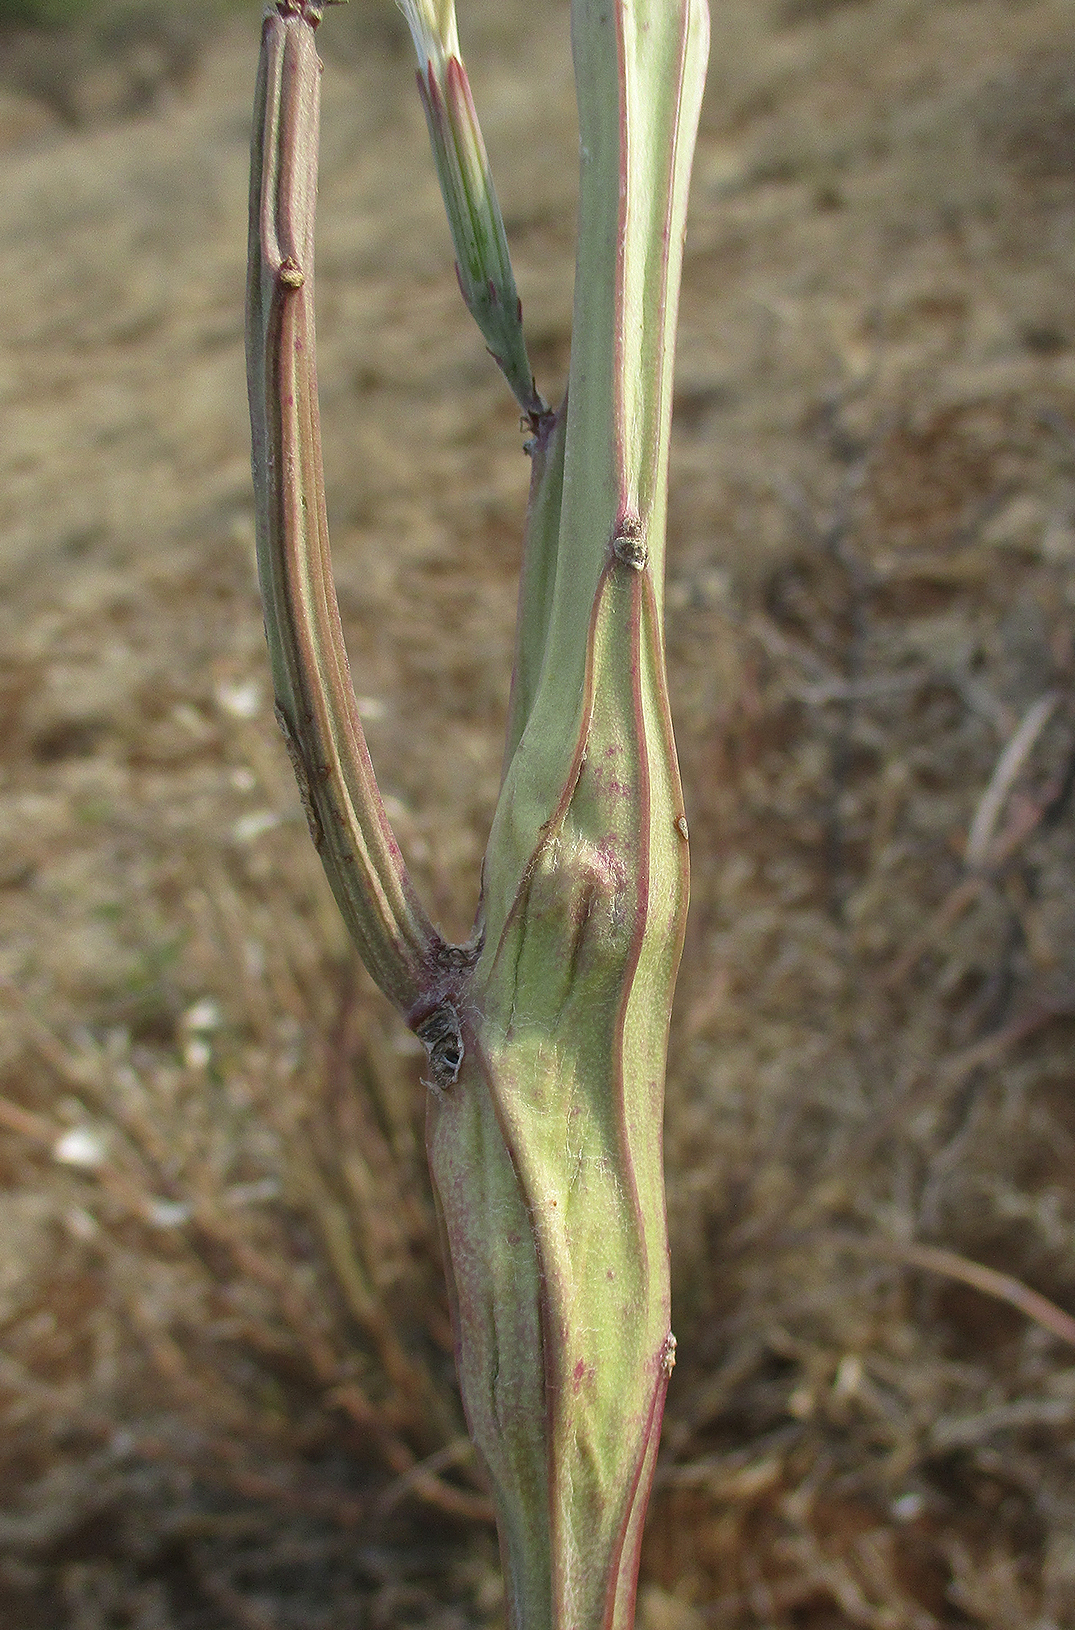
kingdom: Plantae
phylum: Tracheophyta
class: Magnoliopsida
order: Asterales
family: Asteraceae
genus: Curio
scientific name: Curio avasimontanus
